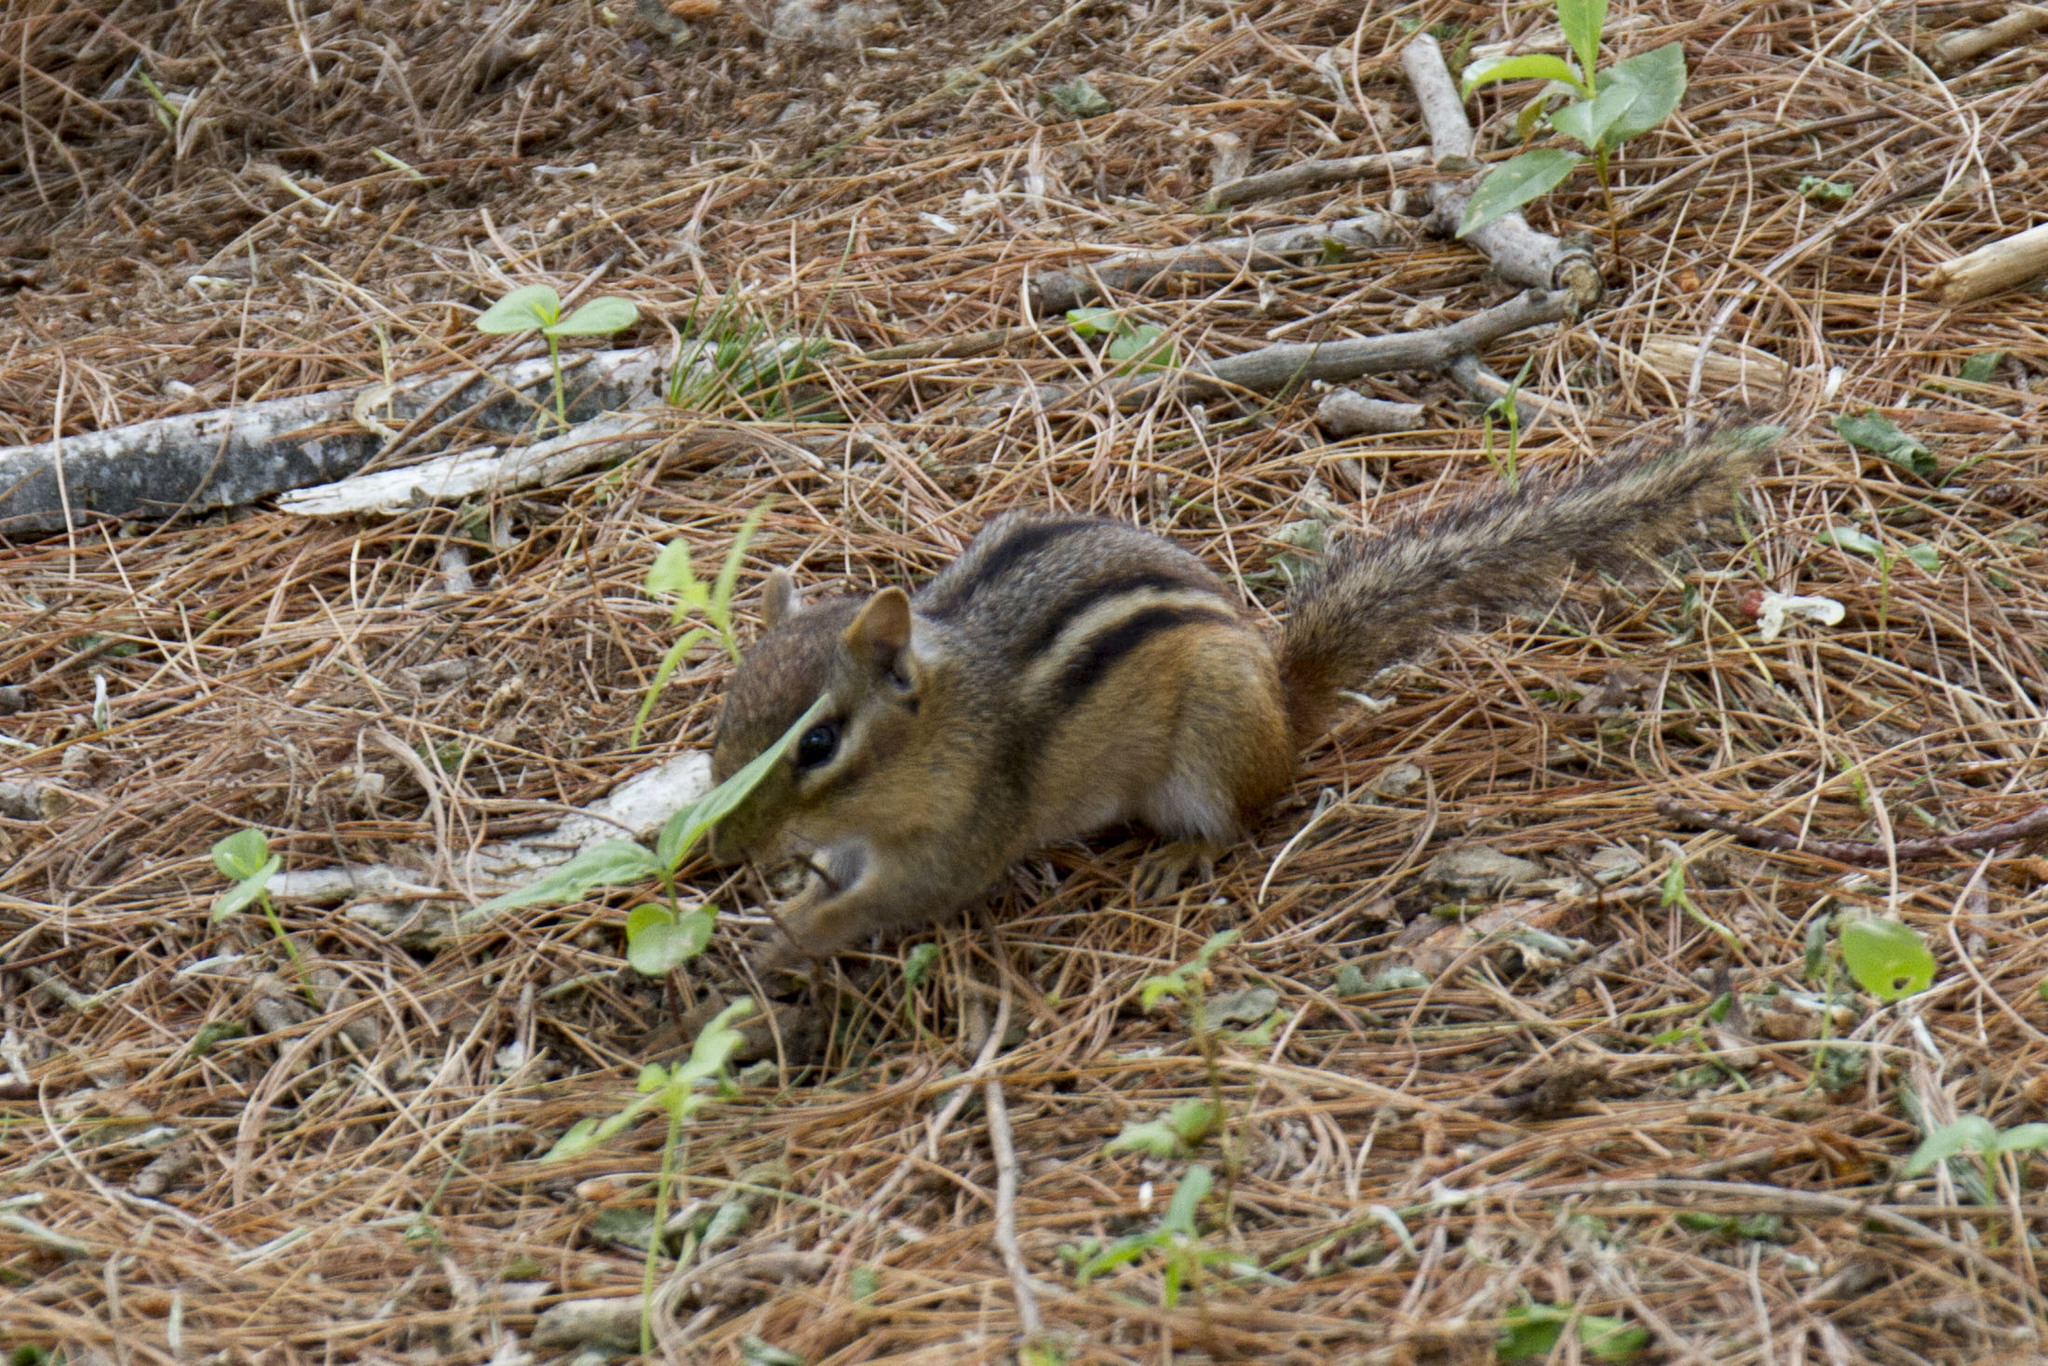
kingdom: Animalia
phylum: Chordata
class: Mammalia
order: Rodentia
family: Sciuridae
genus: Tamias
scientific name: Tamias striatus
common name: Eastern chipmunk
